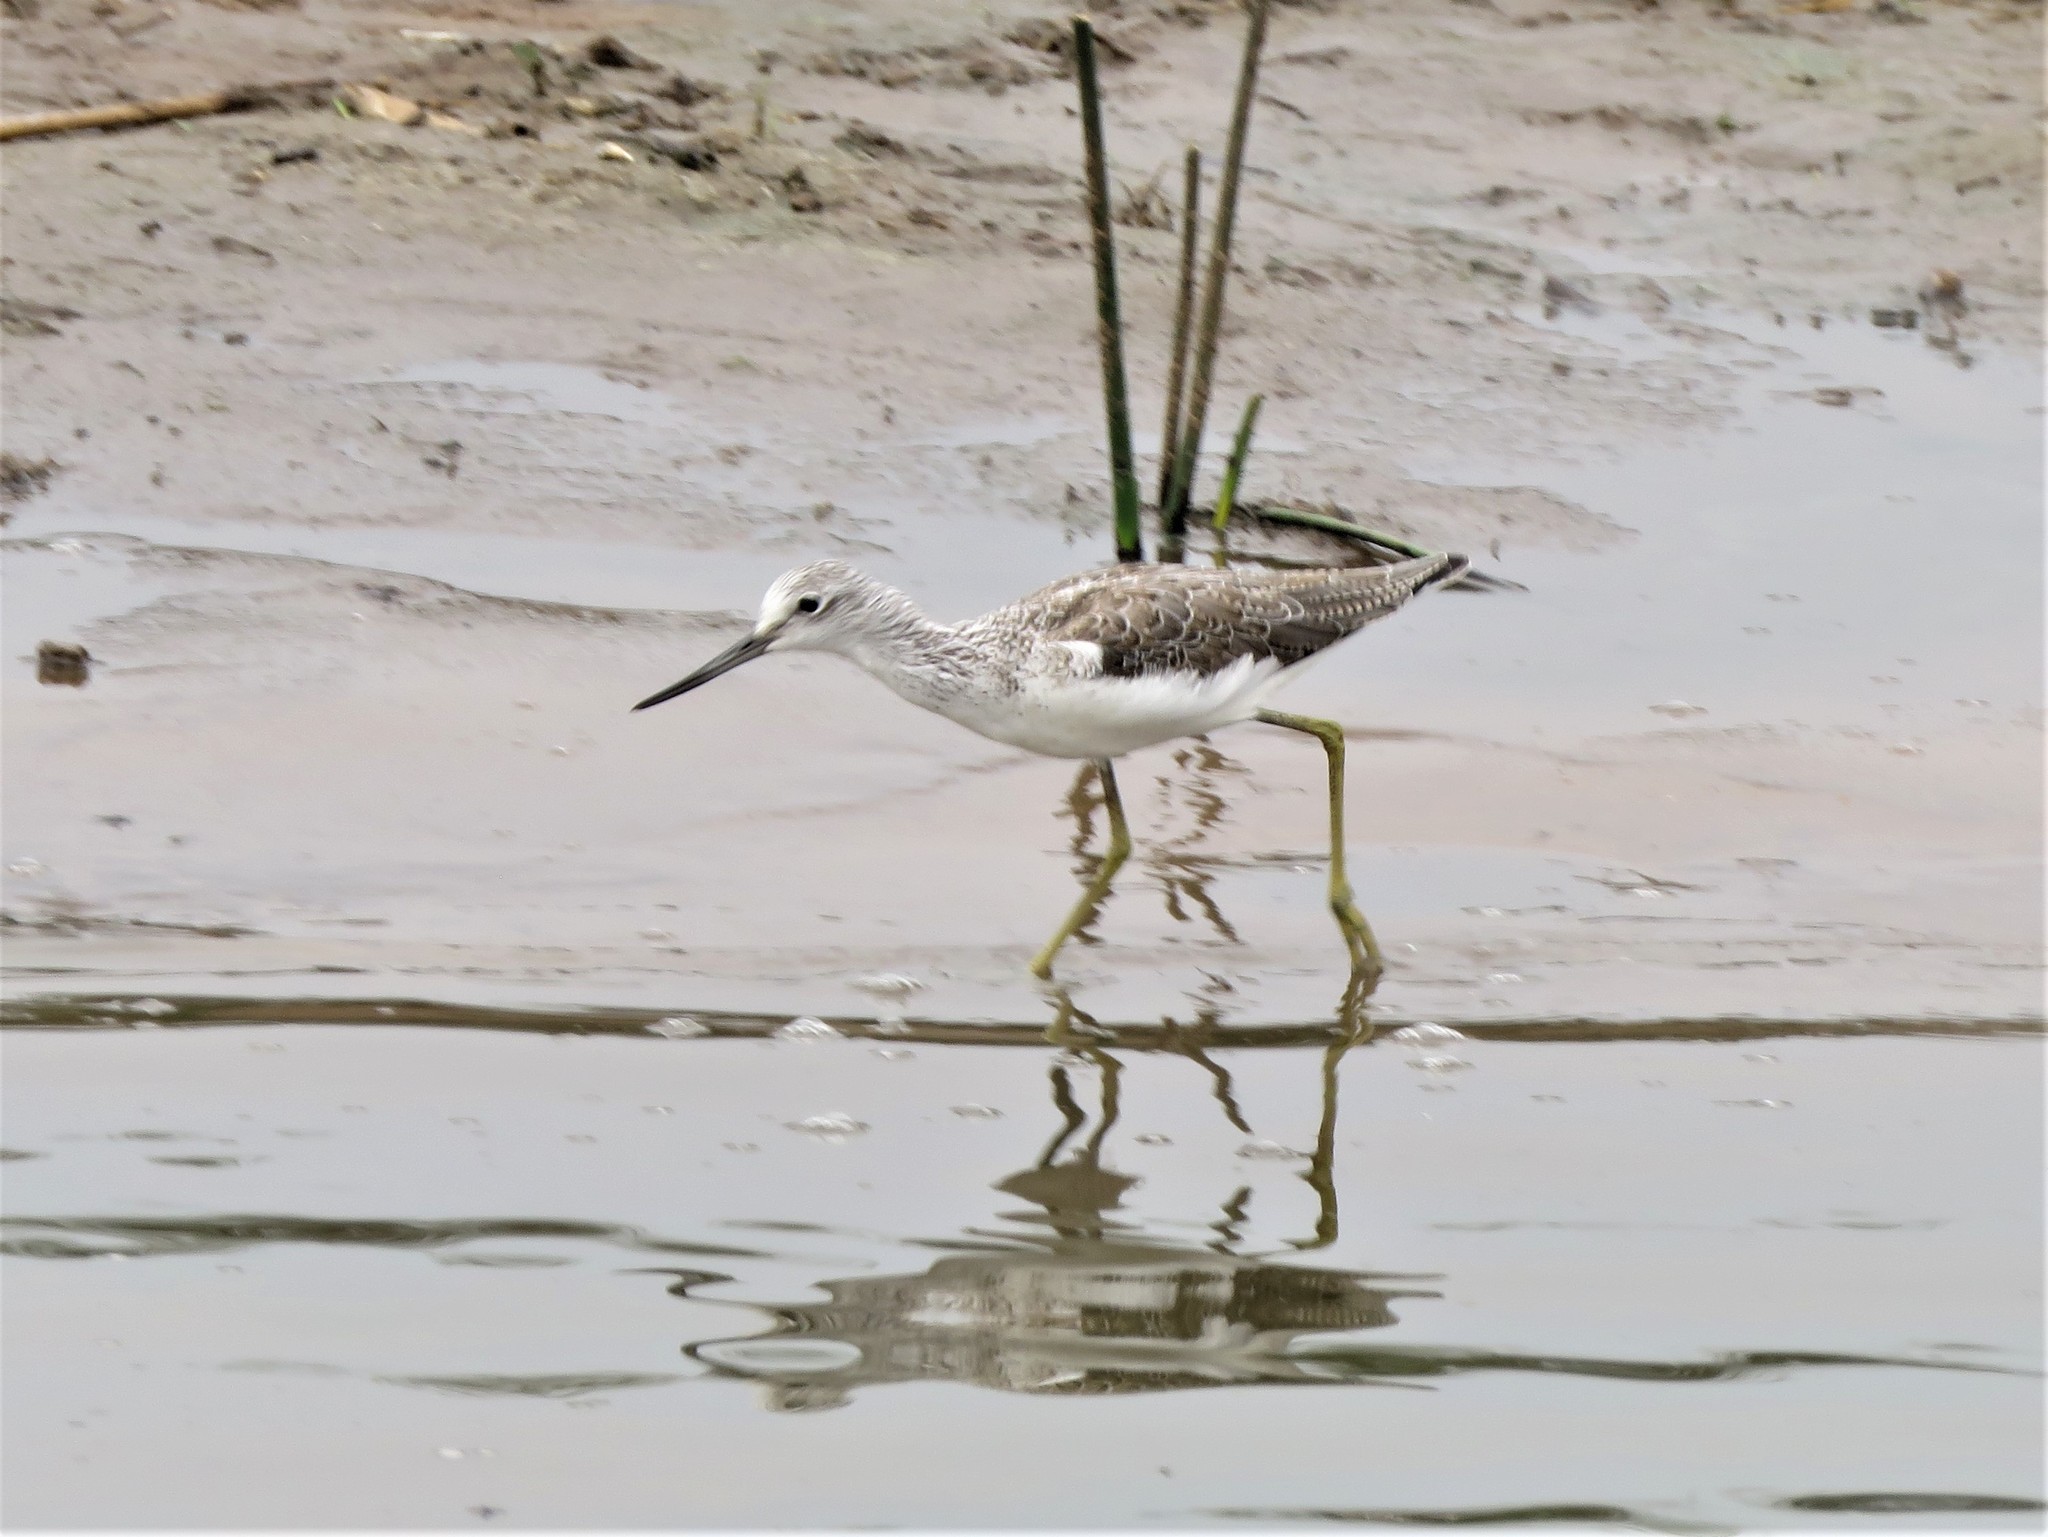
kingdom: Animalia
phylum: Chordata
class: Aves
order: Charadriiformes
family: Scolopacidae
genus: Tringa
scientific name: Tringa nebularia
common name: Common greenshank
